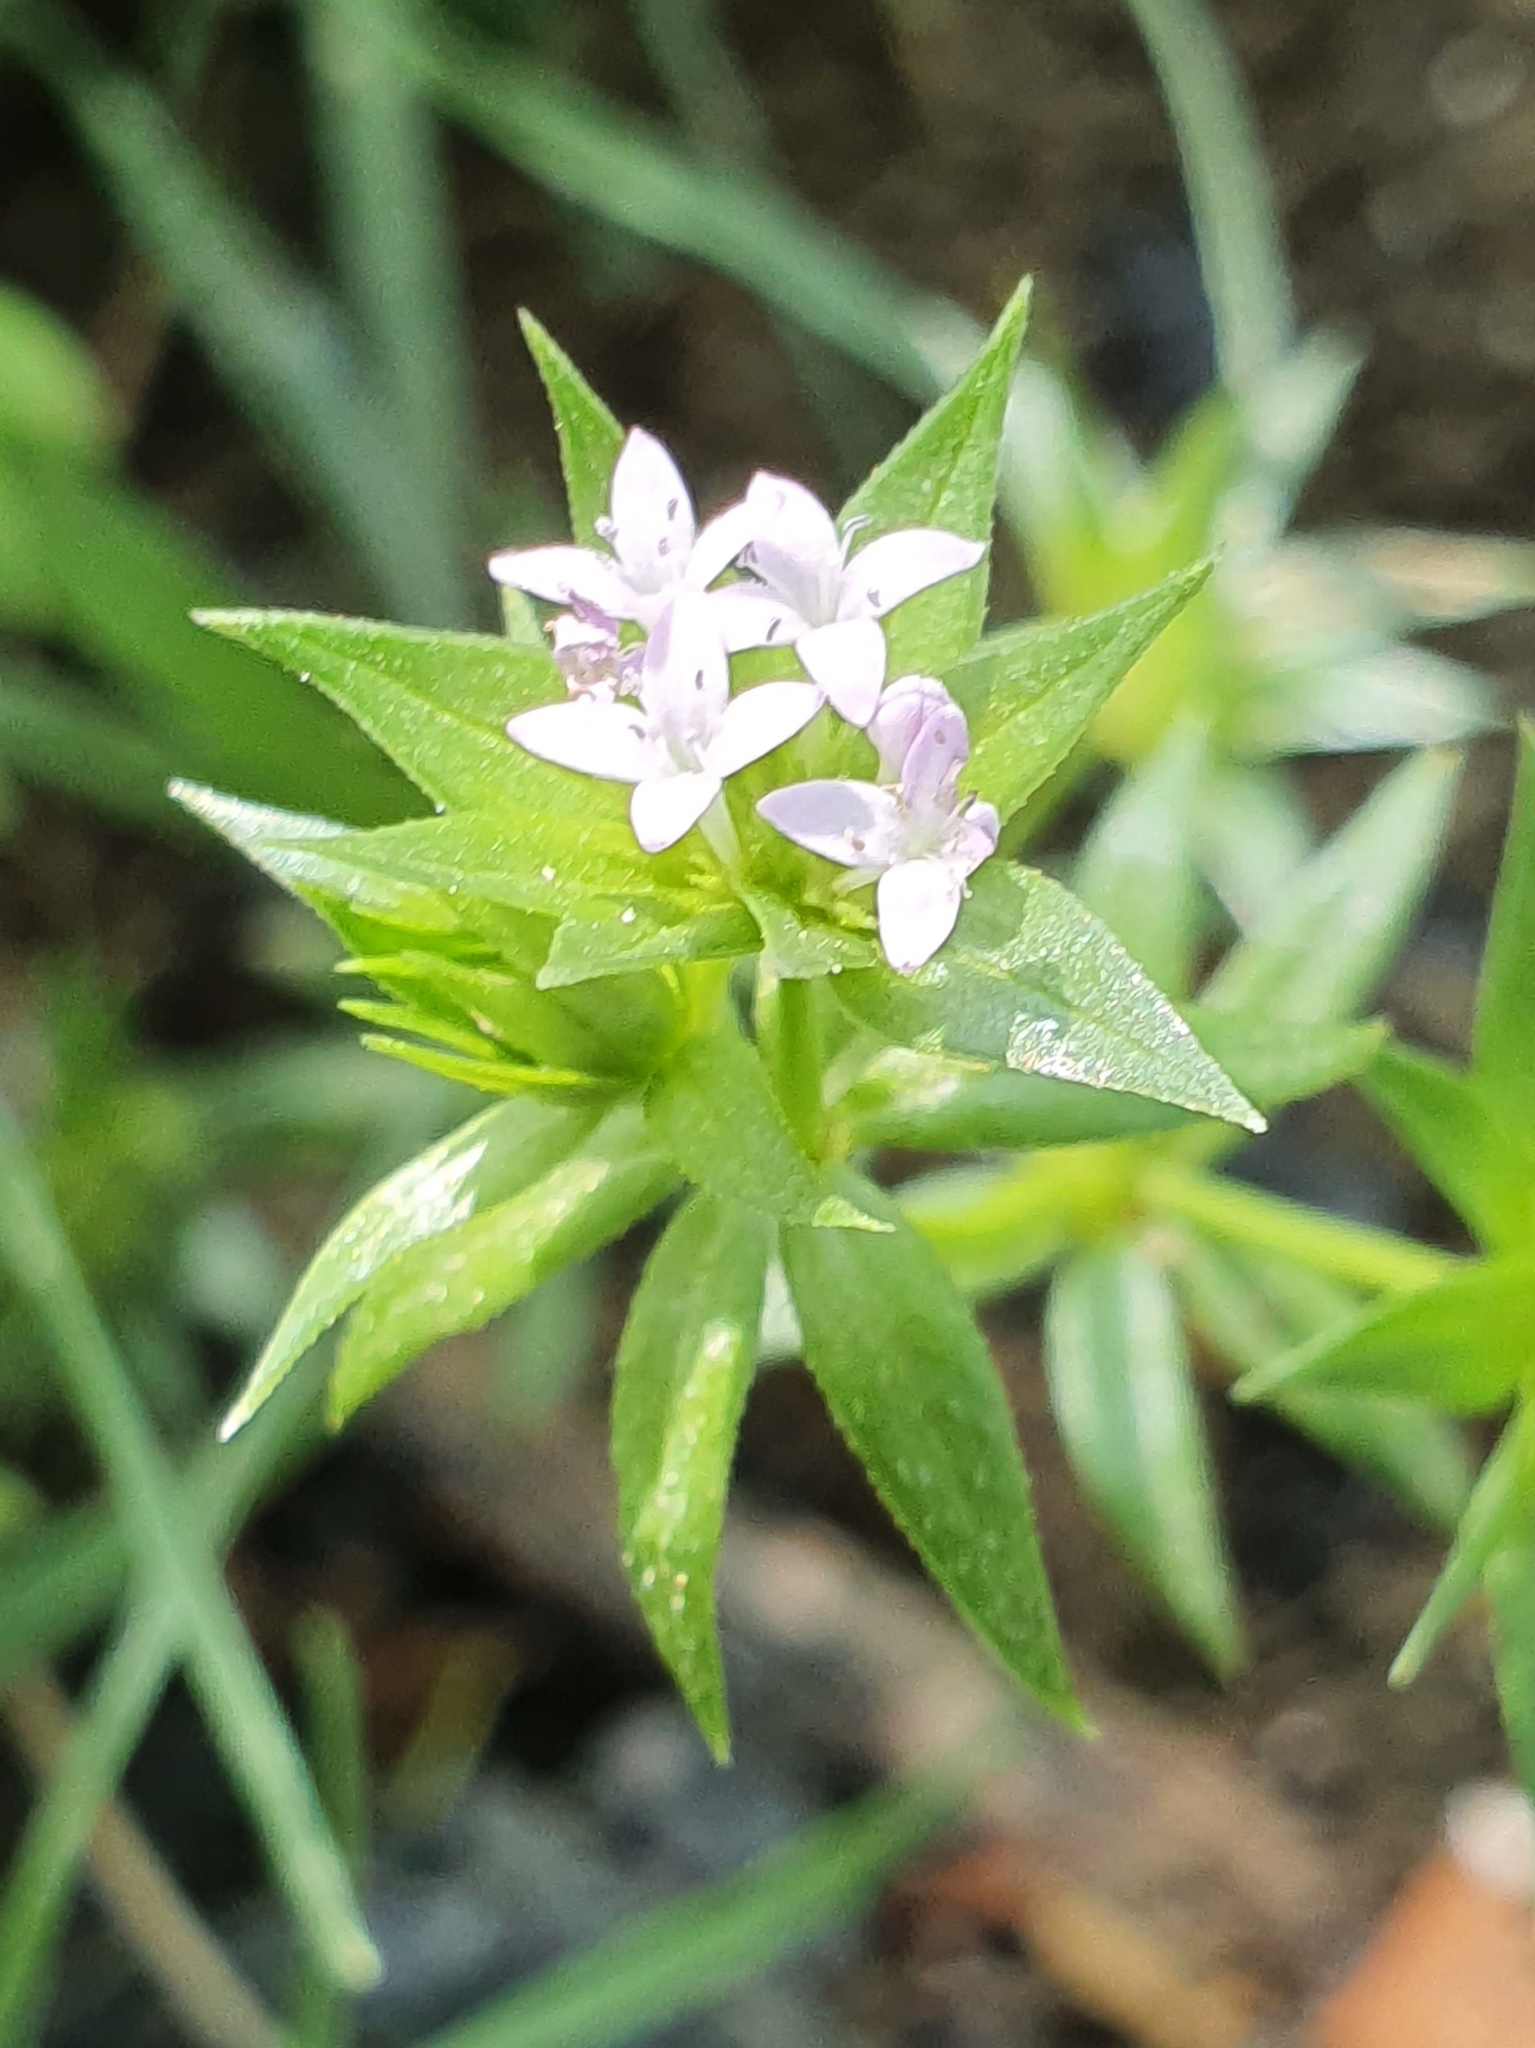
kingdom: Plantae
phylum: Tracheophyta
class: Magnoliopsida
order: Gentianales
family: Rubiaceae
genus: Sherardia
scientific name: Sherardia arvensis
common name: Field madder
